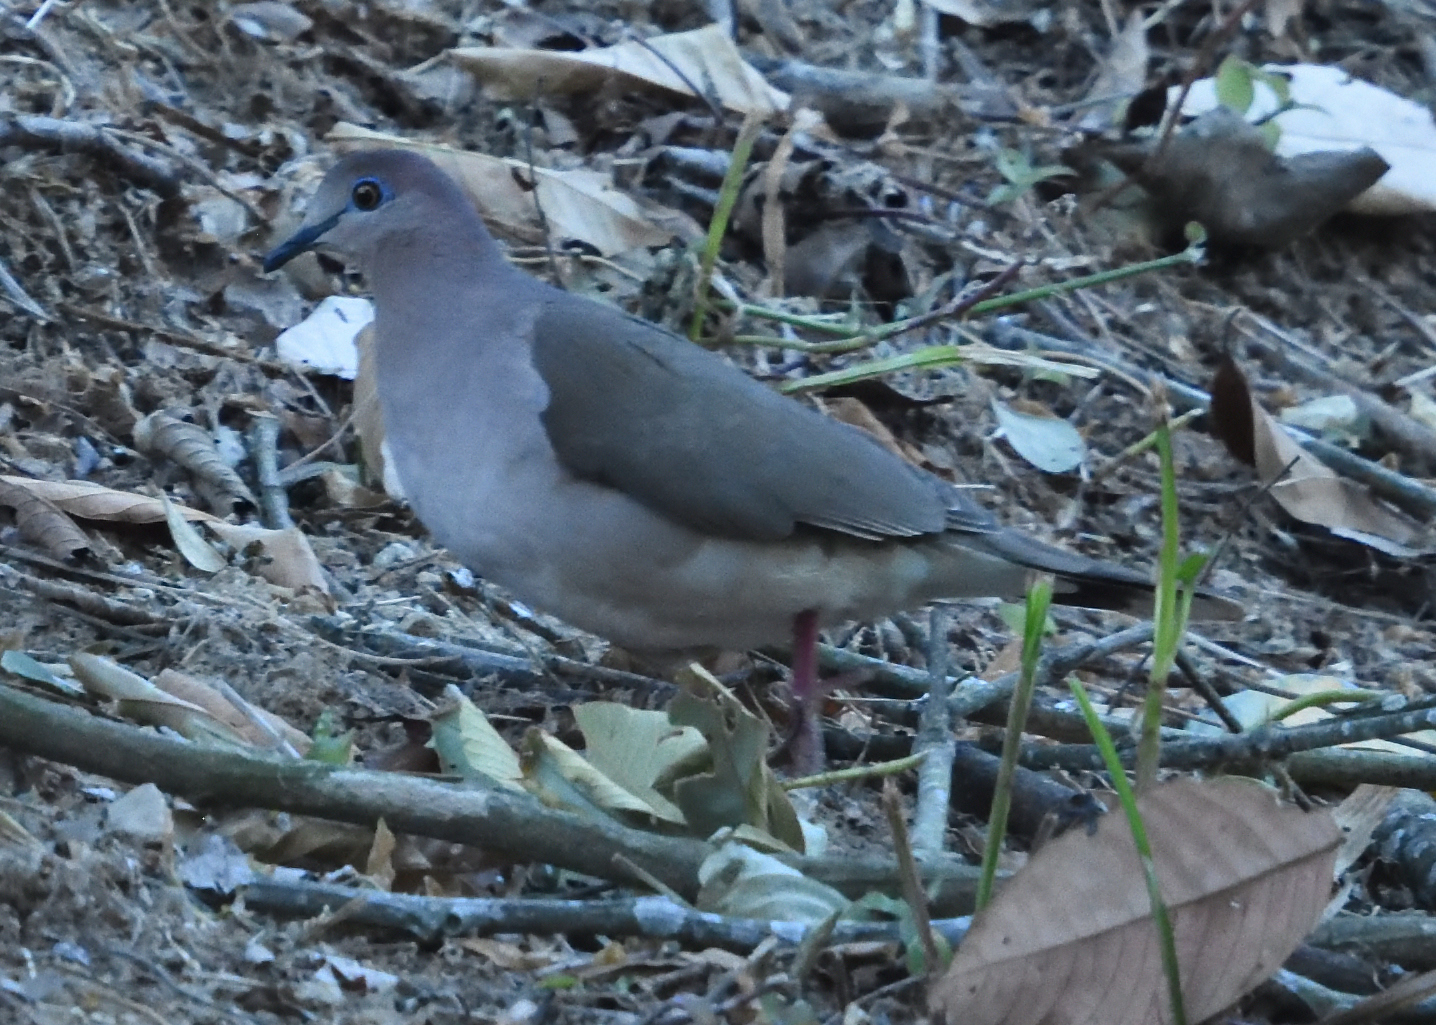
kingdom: Animalia
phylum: Chordata
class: Aves
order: Columbiformes
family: Columbidae
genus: Leptotila
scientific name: Leptotila verreauxi
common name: White-tipped dove
